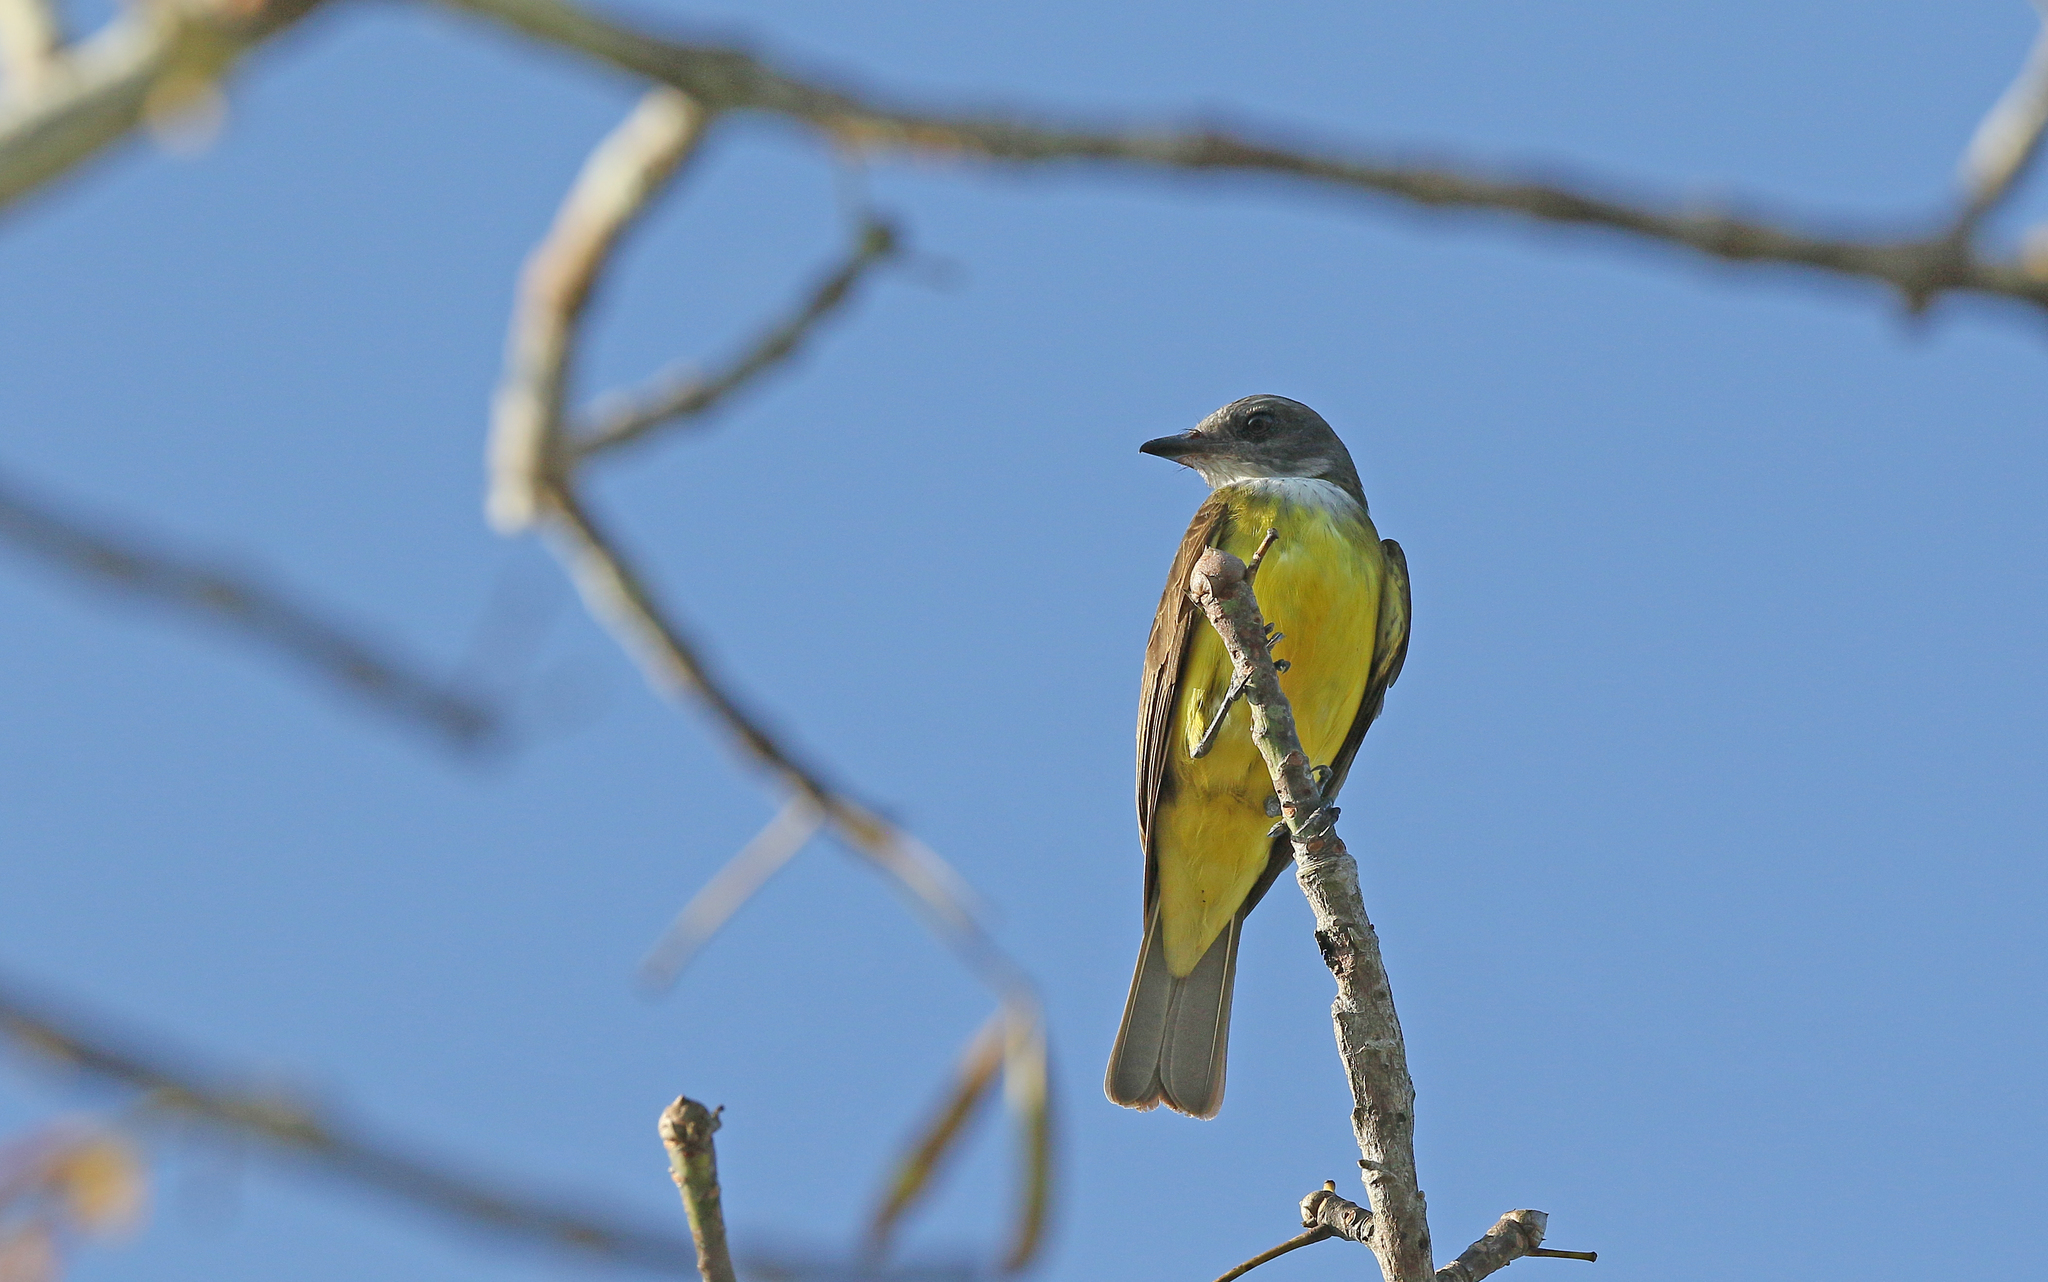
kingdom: Animalia
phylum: Chordata
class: Aves
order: Passeriformes
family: Tyrannidae
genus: Tyrannopsis
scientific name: Tyrannopsis sulphurea
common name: Sulphury flycatcher
